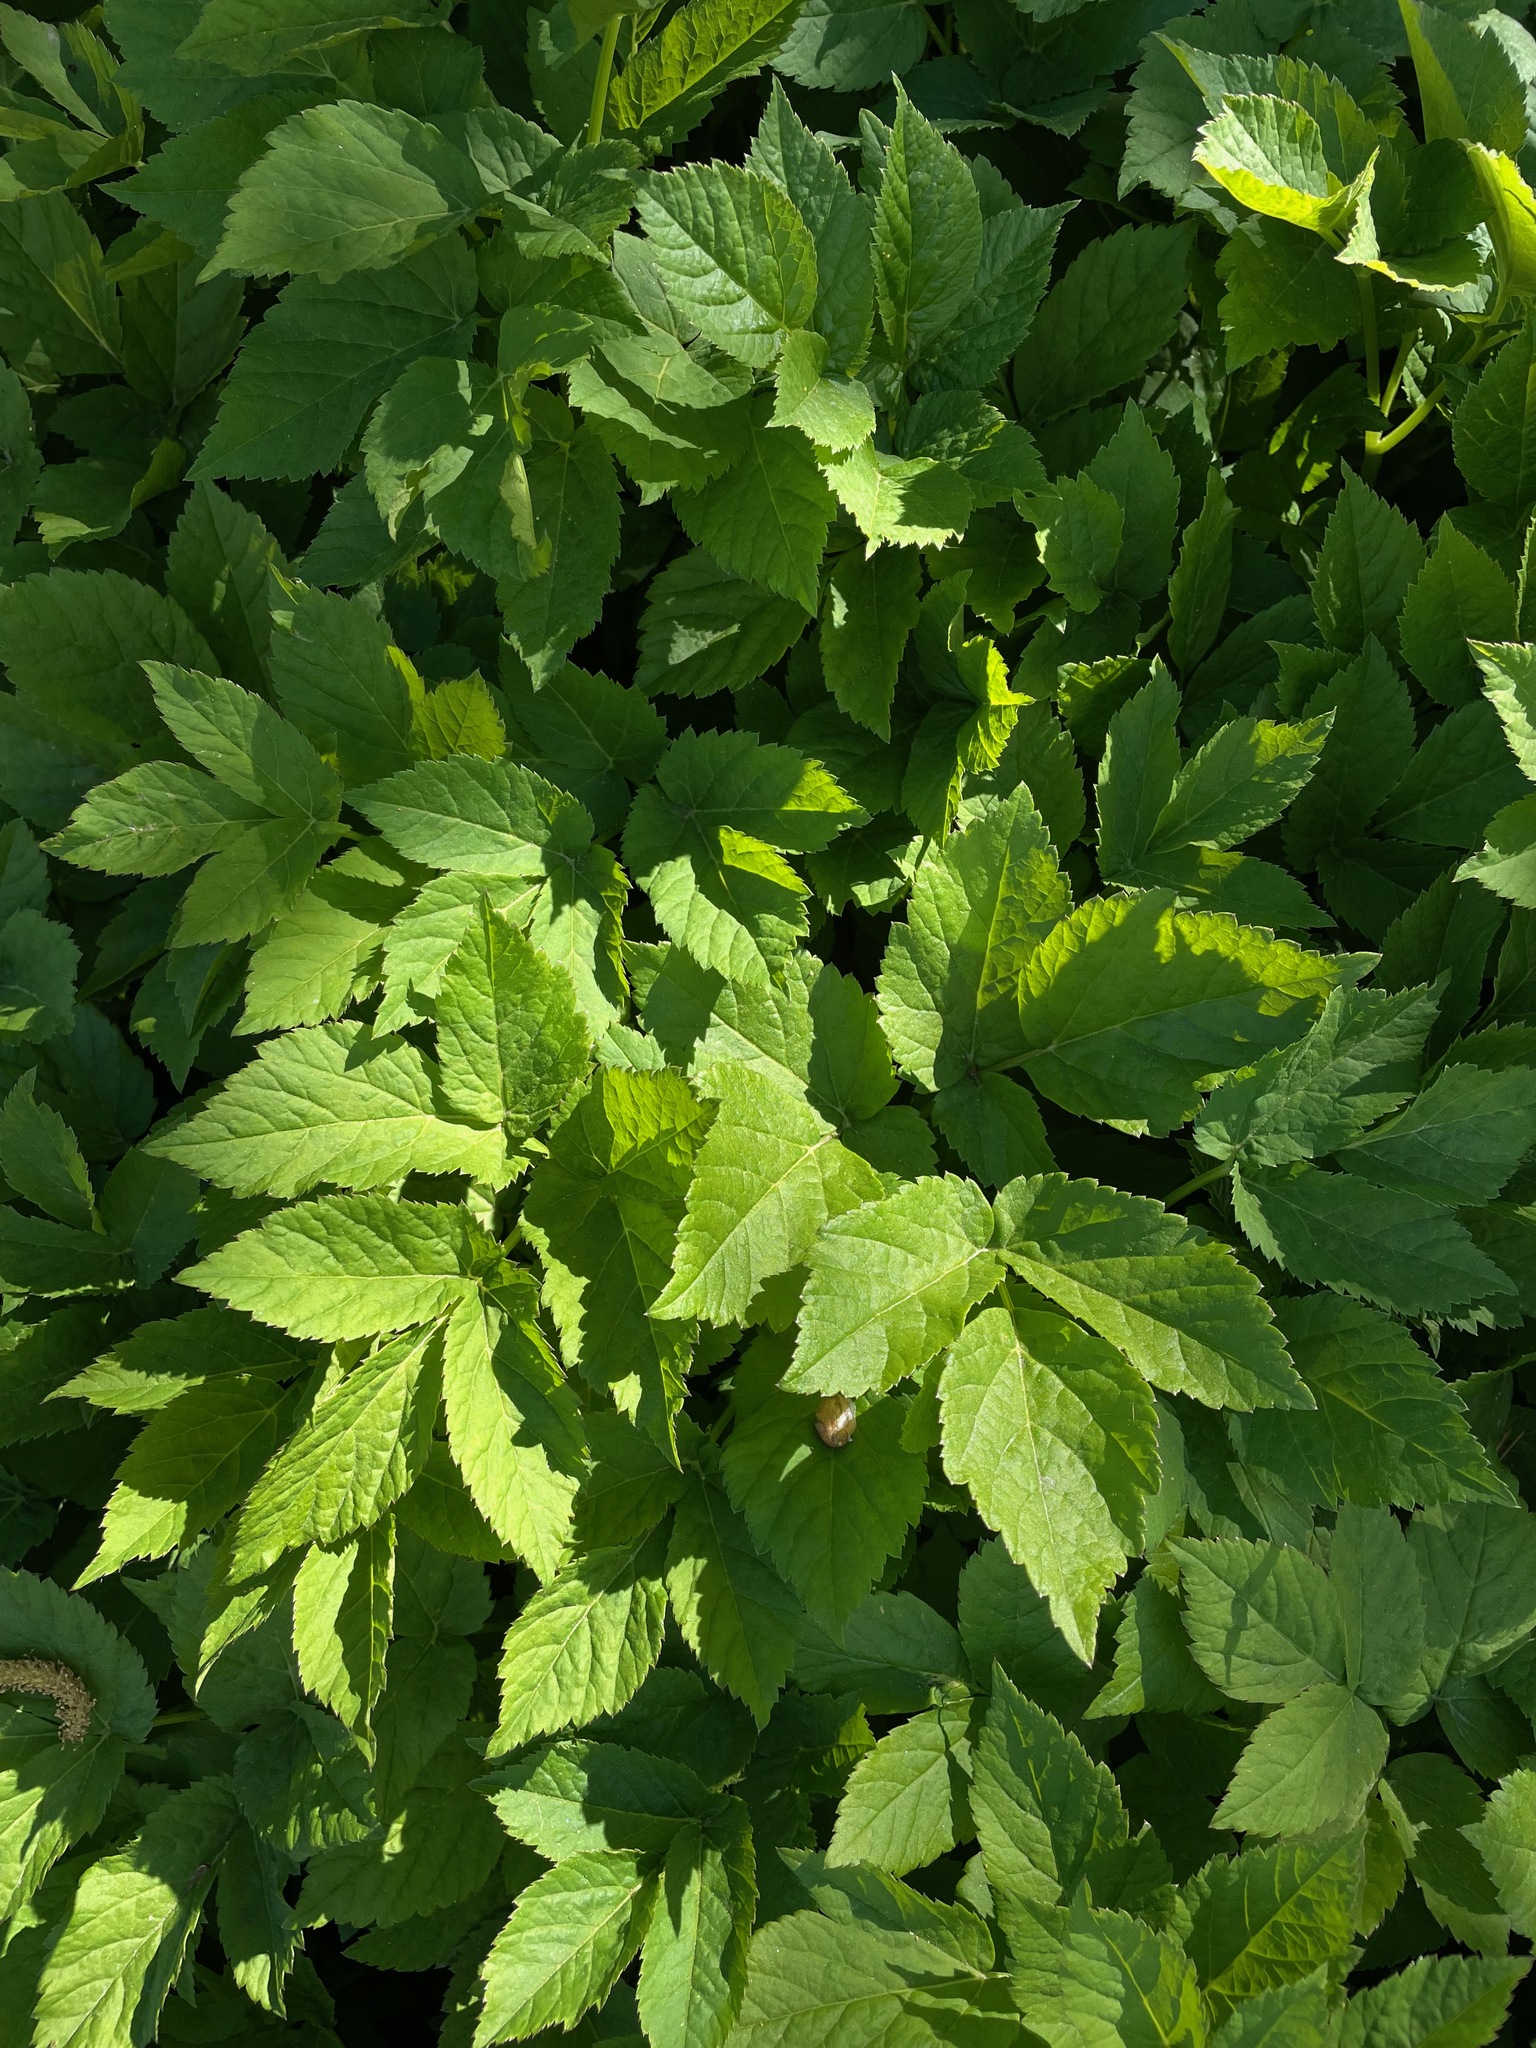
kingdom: Plantae
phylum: Tracheophyta
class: Magnoliopsida
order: Apiales
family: Apiaceae
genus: Aegopodium
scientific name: Aegopodium podagraria
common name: Ground-elder
